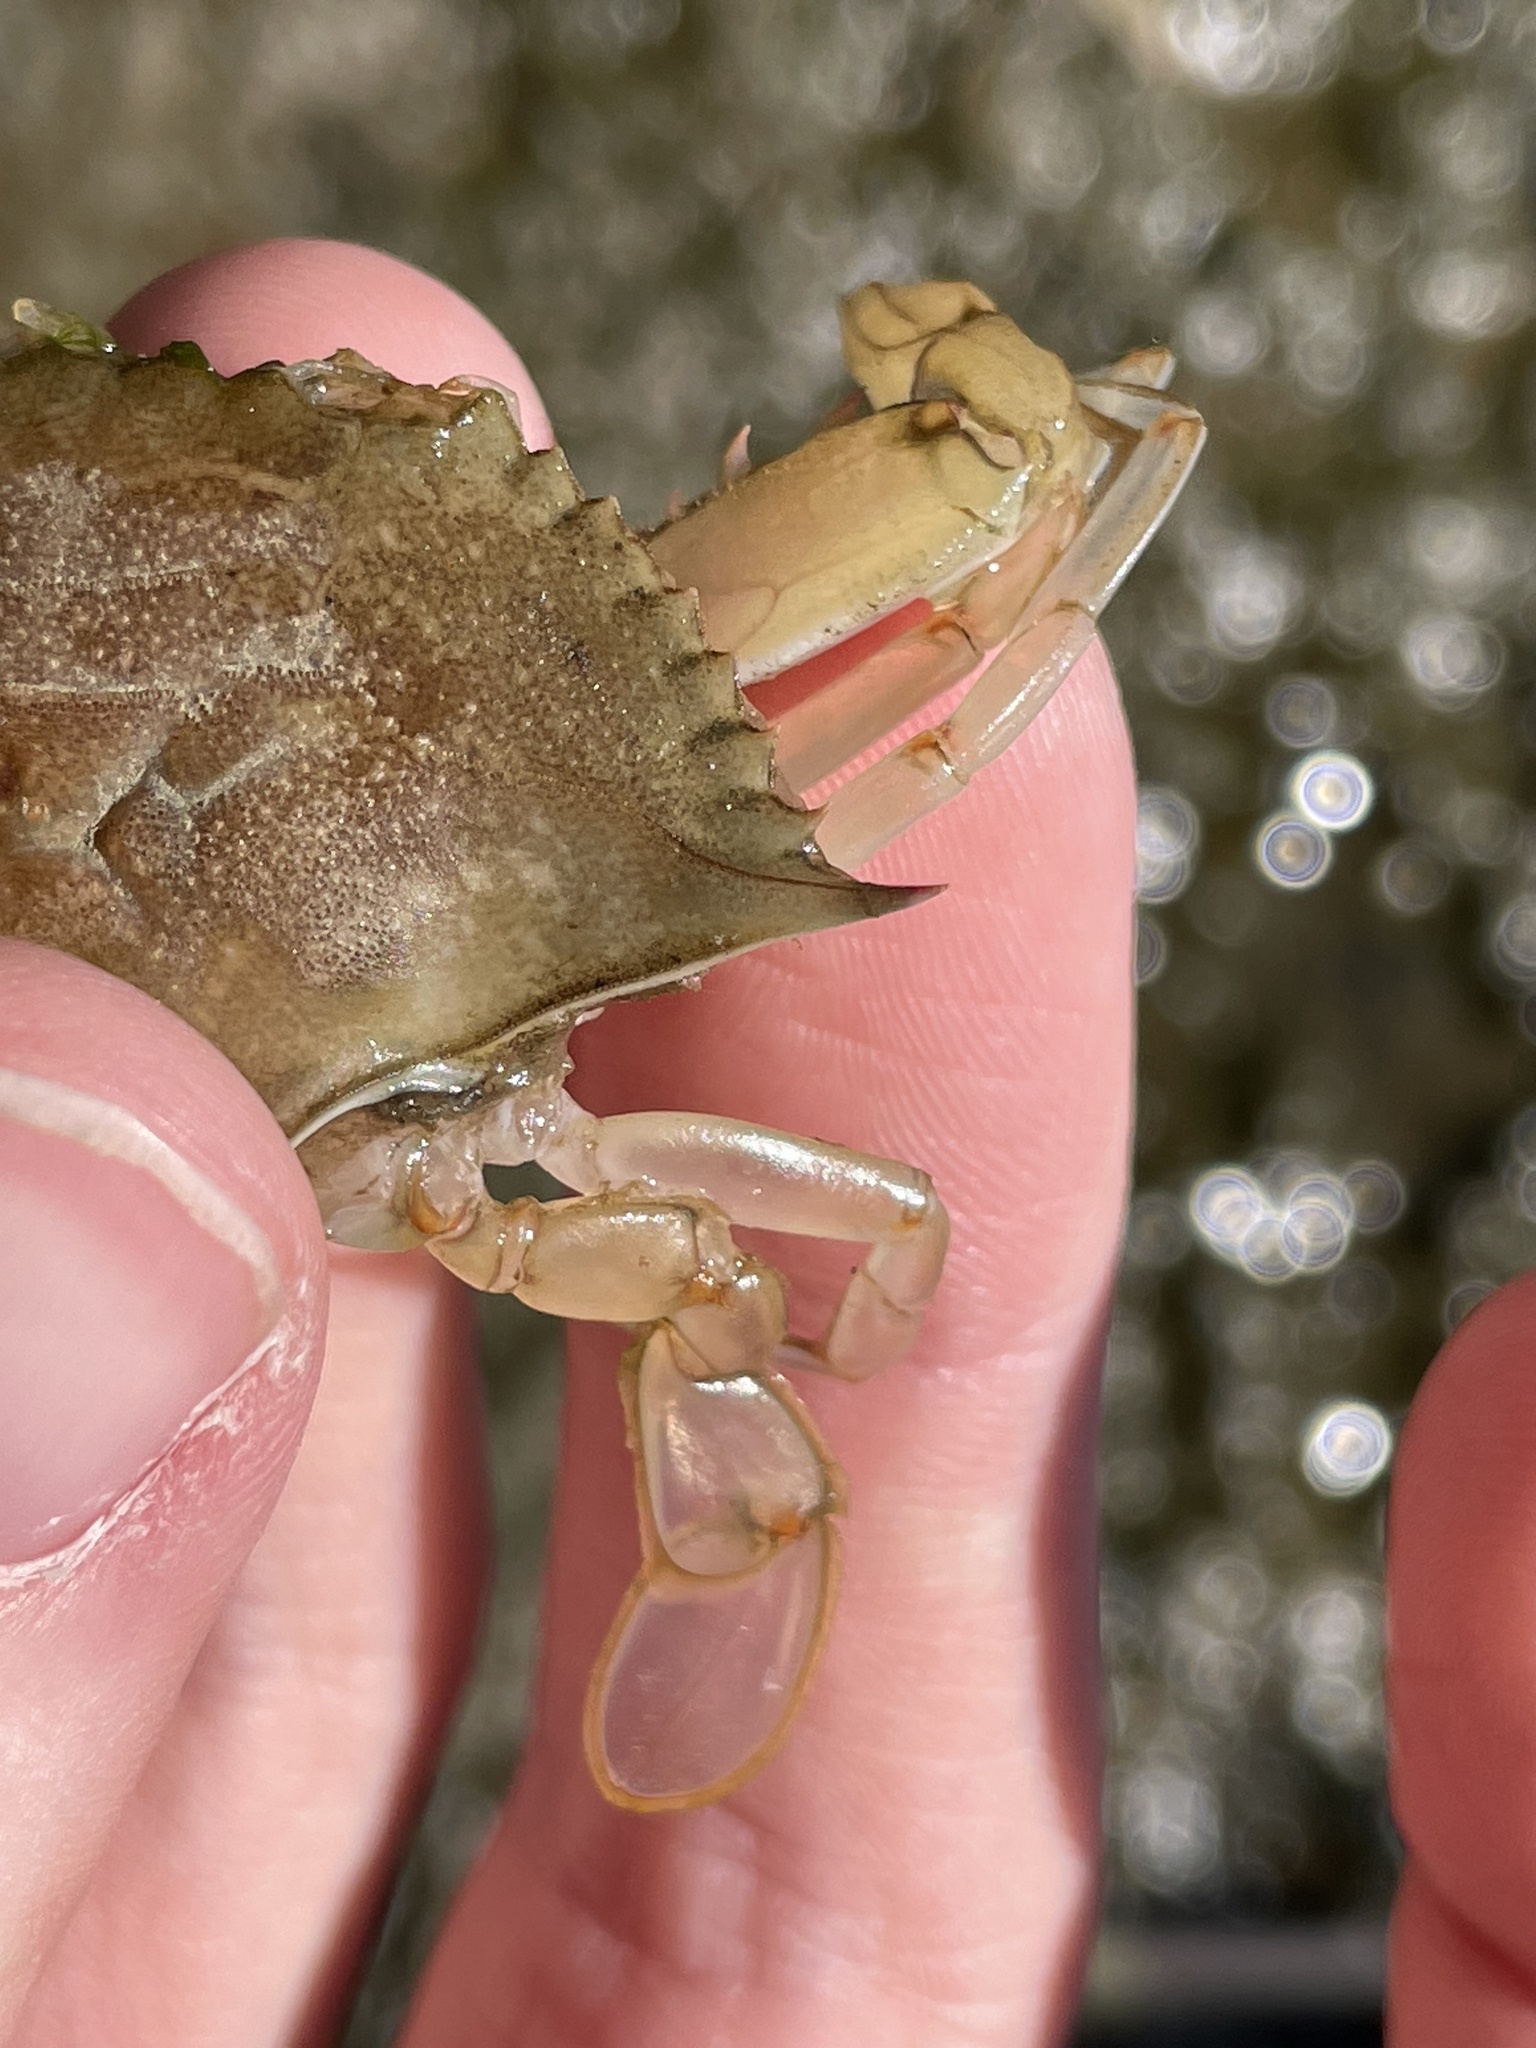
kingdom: Animalia
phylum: Arthropoda
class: Malacostraca
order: Decapoda
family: Portunidae
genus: Callinectes
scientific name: Callinectes sapidus
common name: Blue crab
